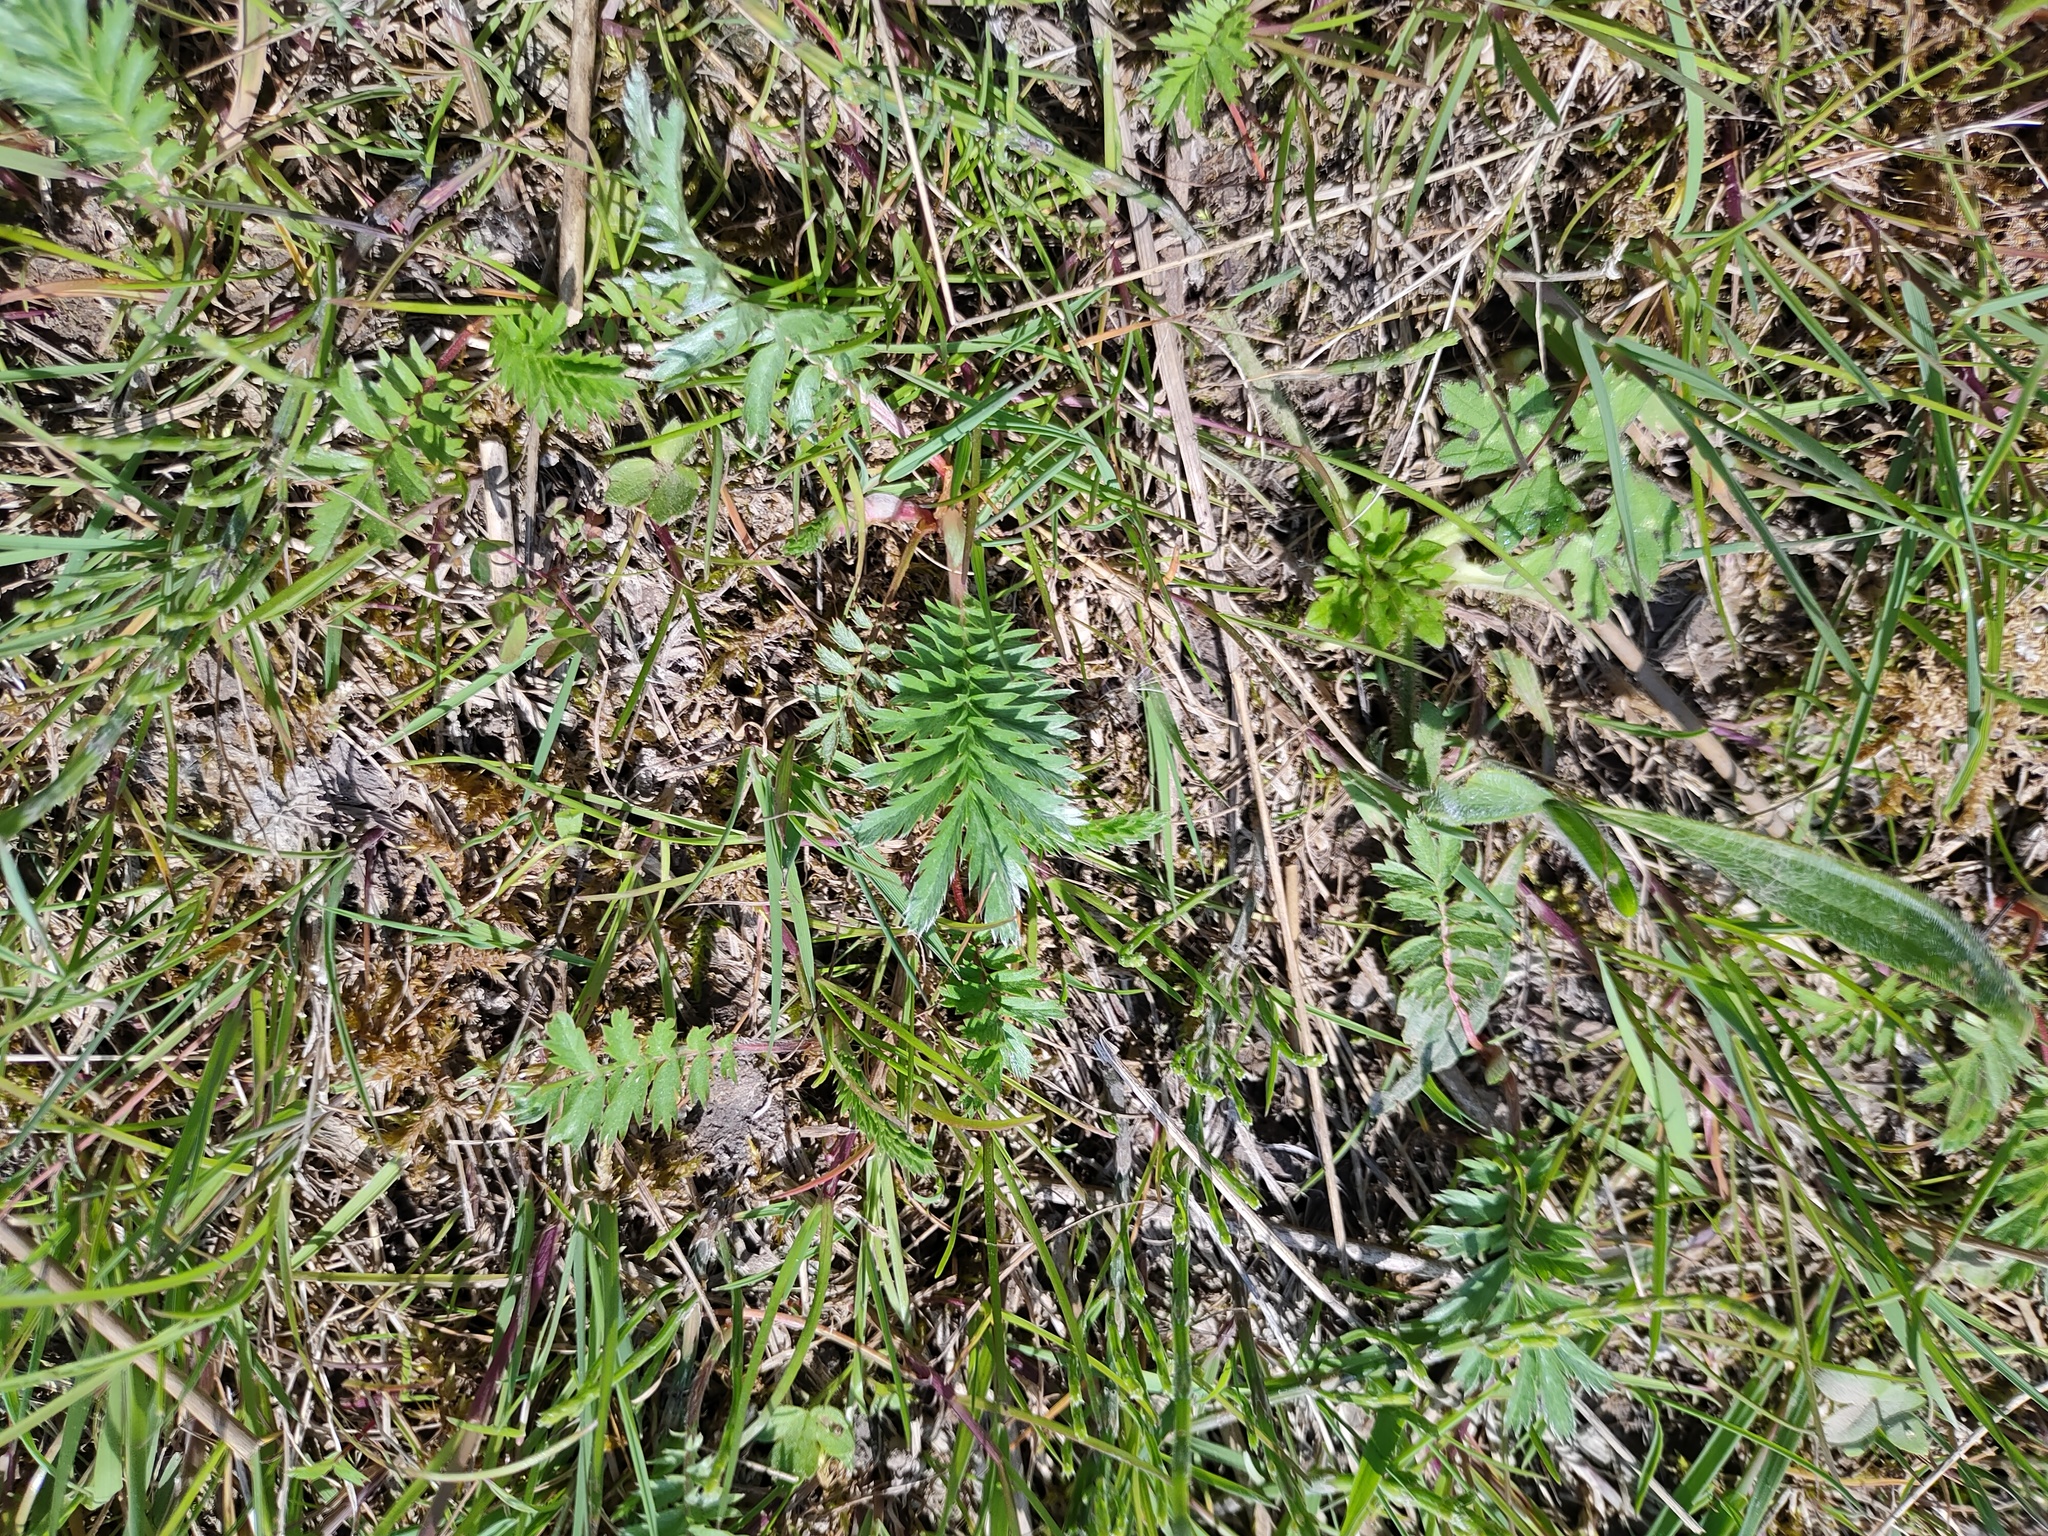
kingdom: Plantae
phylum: Tracheophyta
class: Magnoliopsida
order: Rosales
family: Rosaceae
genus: Argentina
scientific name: Argentina anserina
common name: Common silverweed
